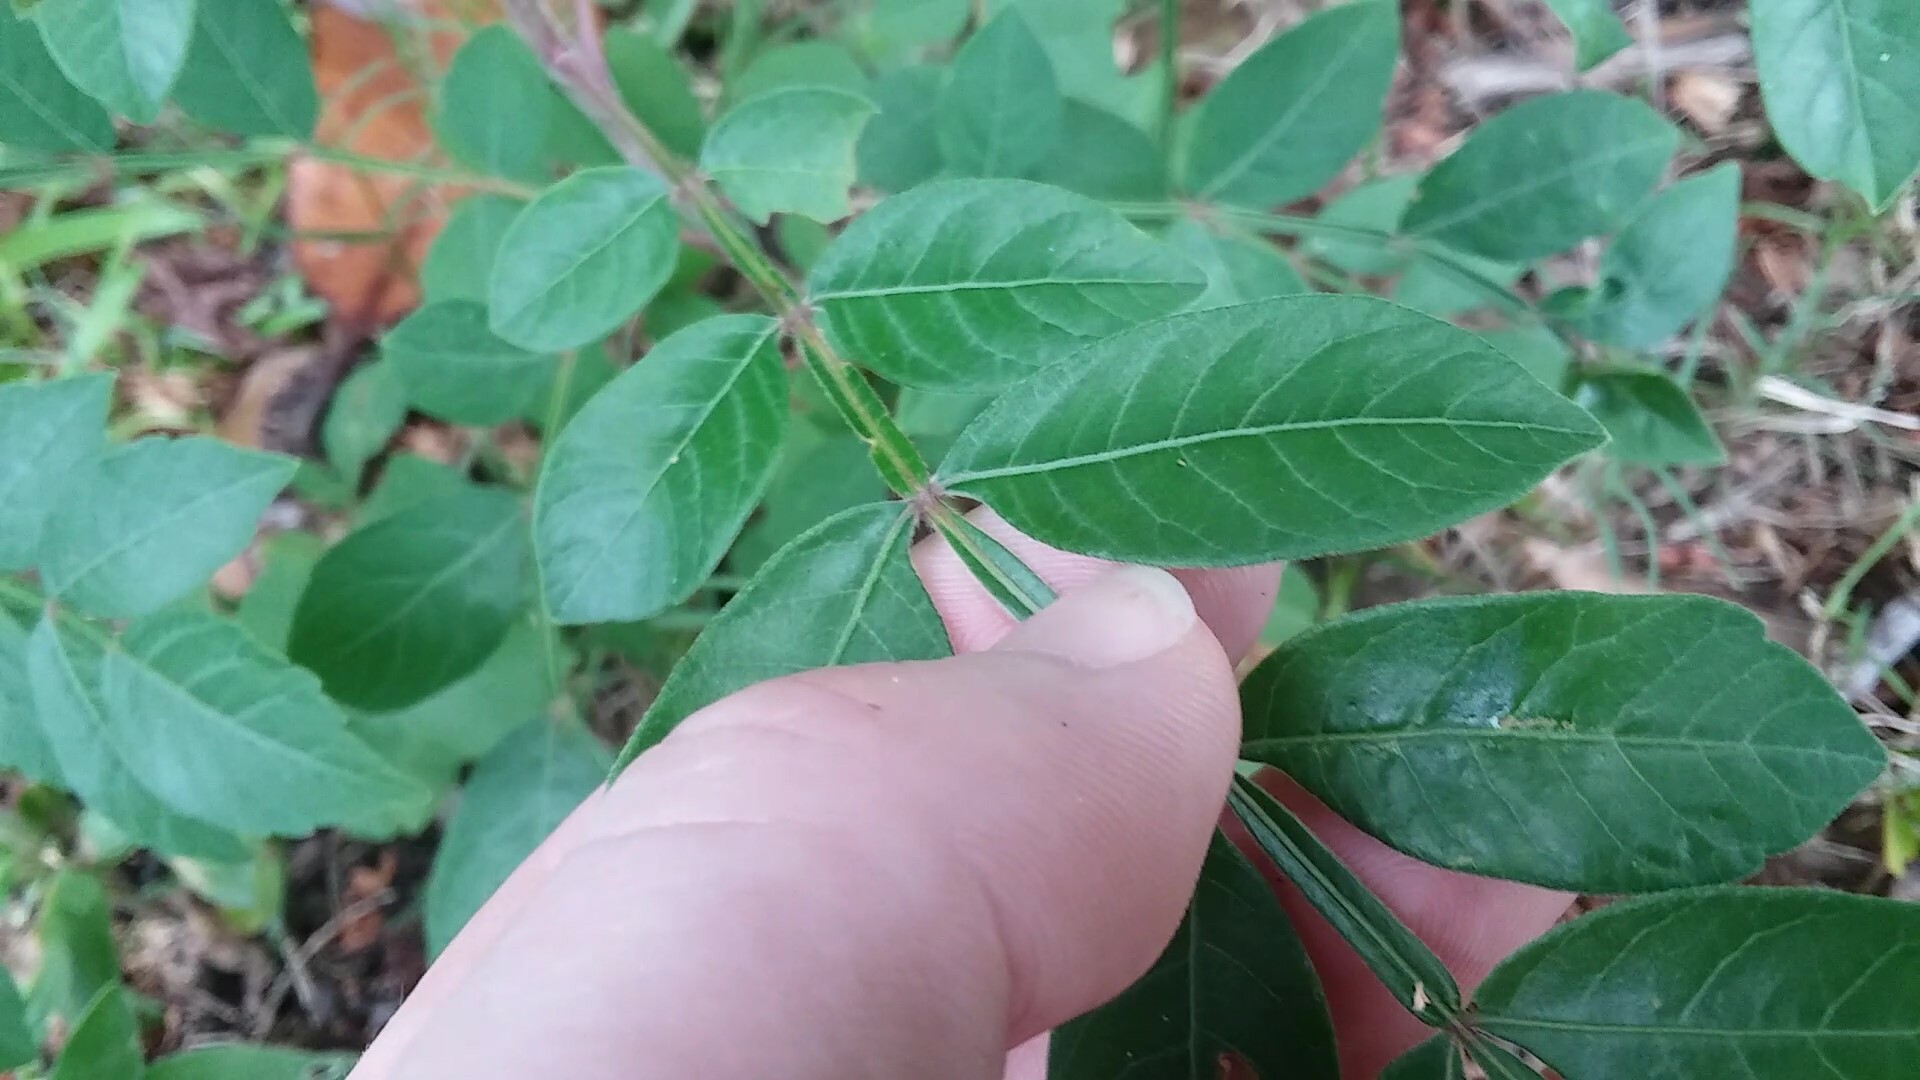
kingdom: Plantae
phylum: Tracheophyta
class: Magnoliopsida
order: Sapindales
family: Anacardiaceae
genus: Rhus
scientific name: Rhus copallina
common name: Shining sumac
